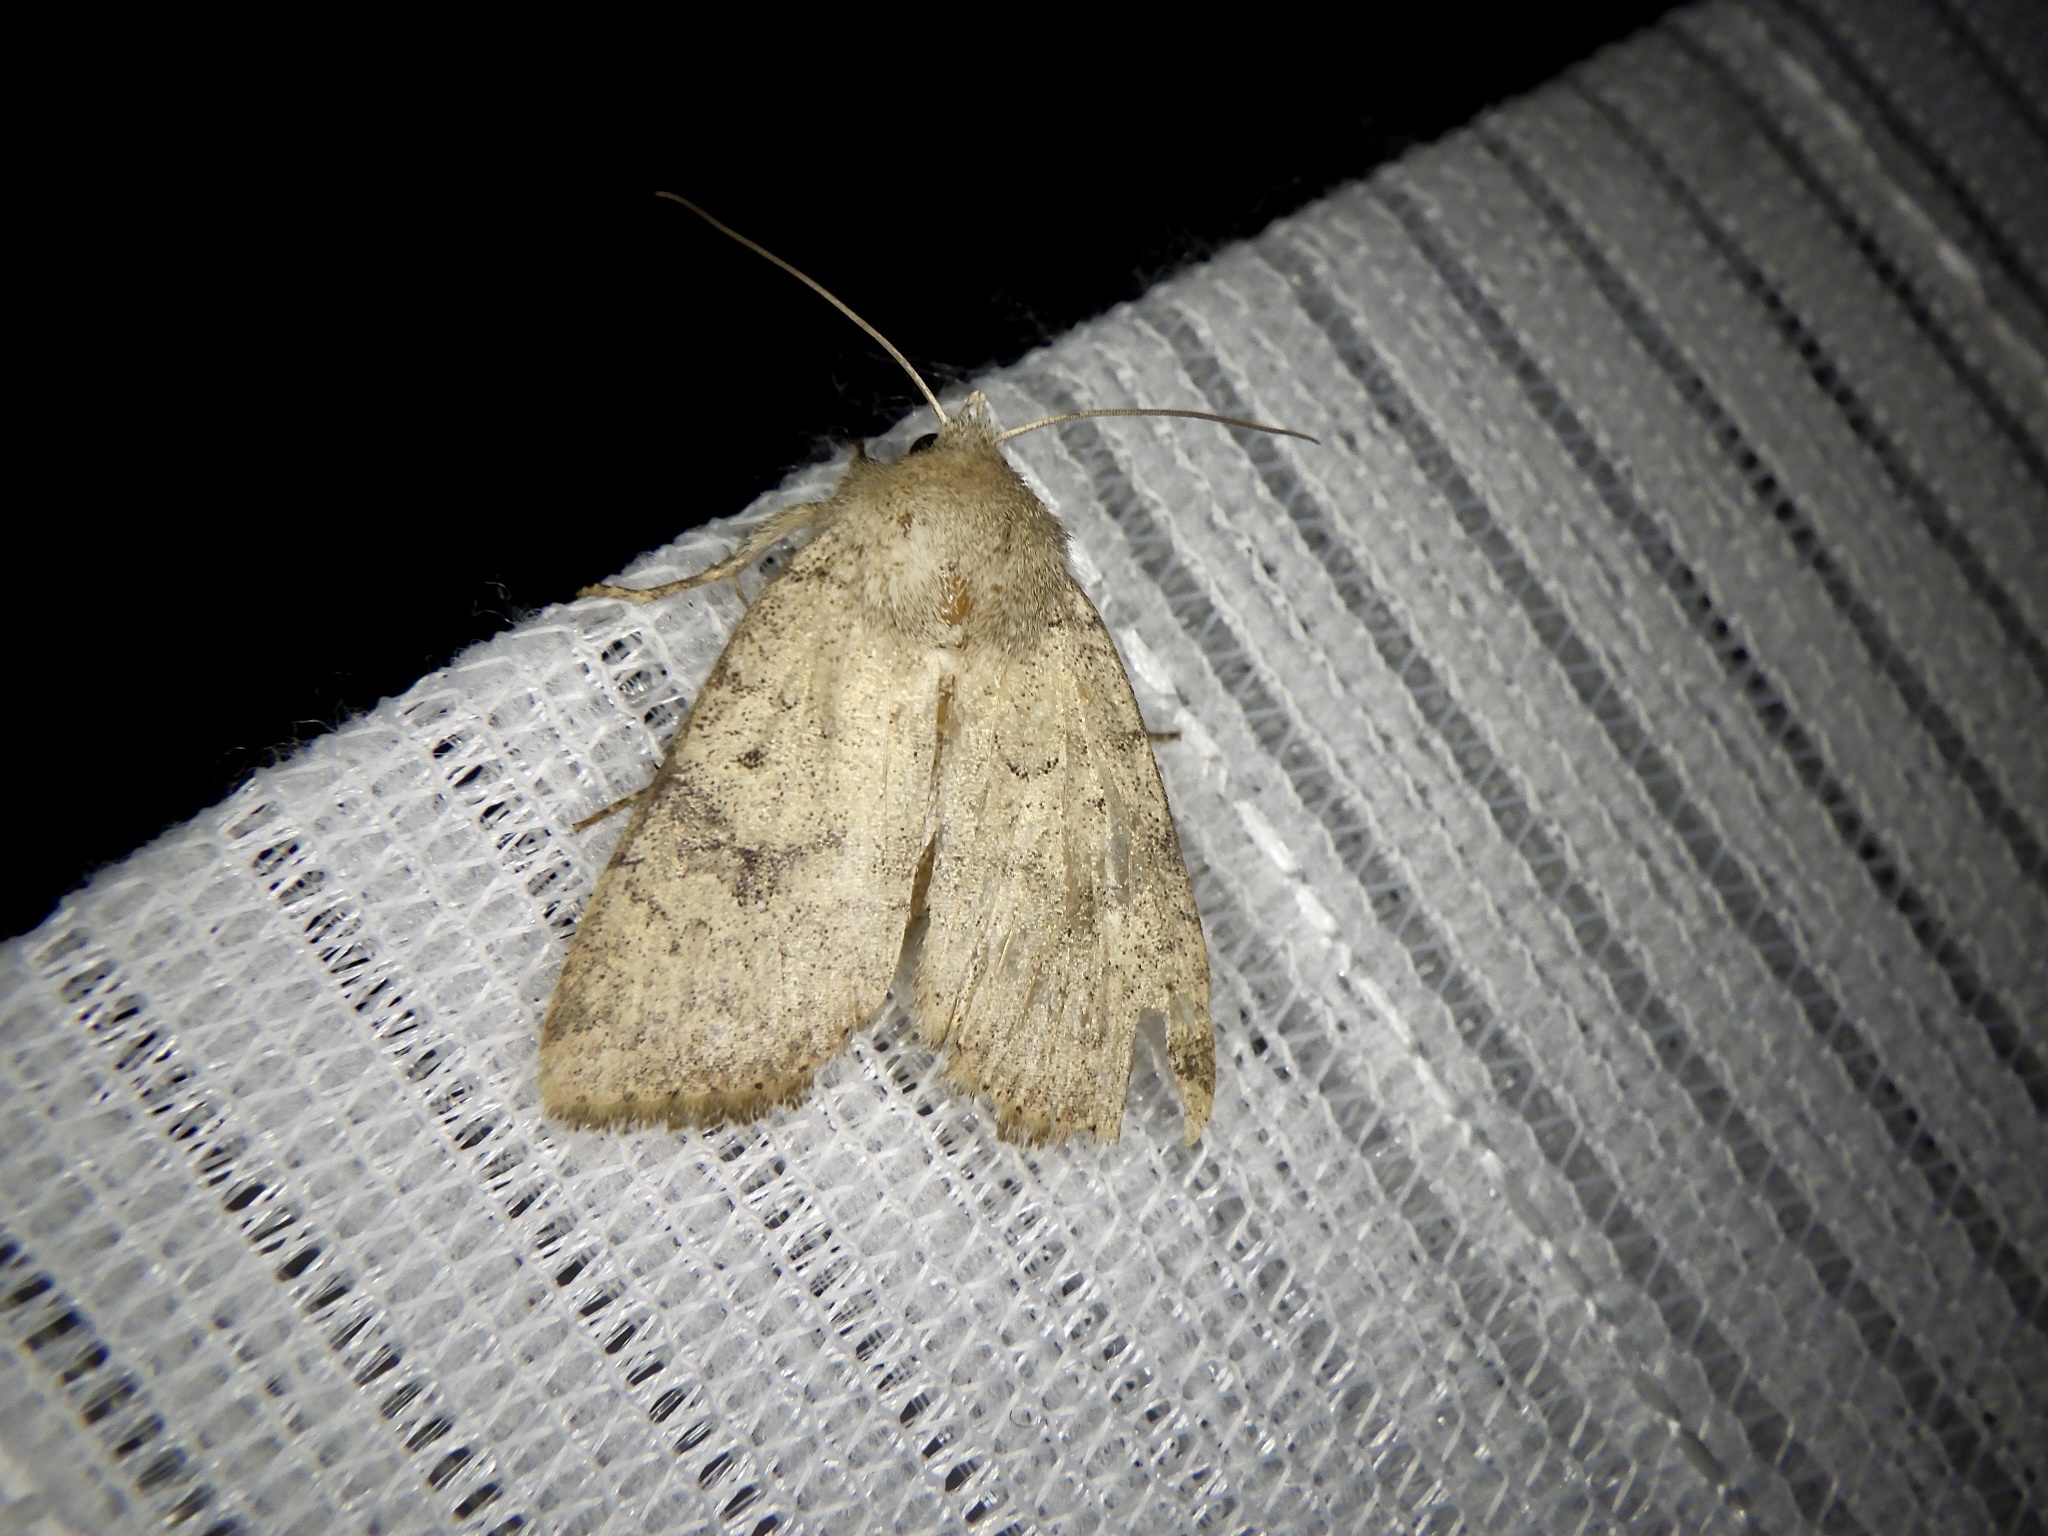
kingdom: Animalia
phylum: Arthropoda
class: Insecta
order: Lepidoptera
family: Noctuidae
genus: Athetis
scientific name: Athetis cinerascens
